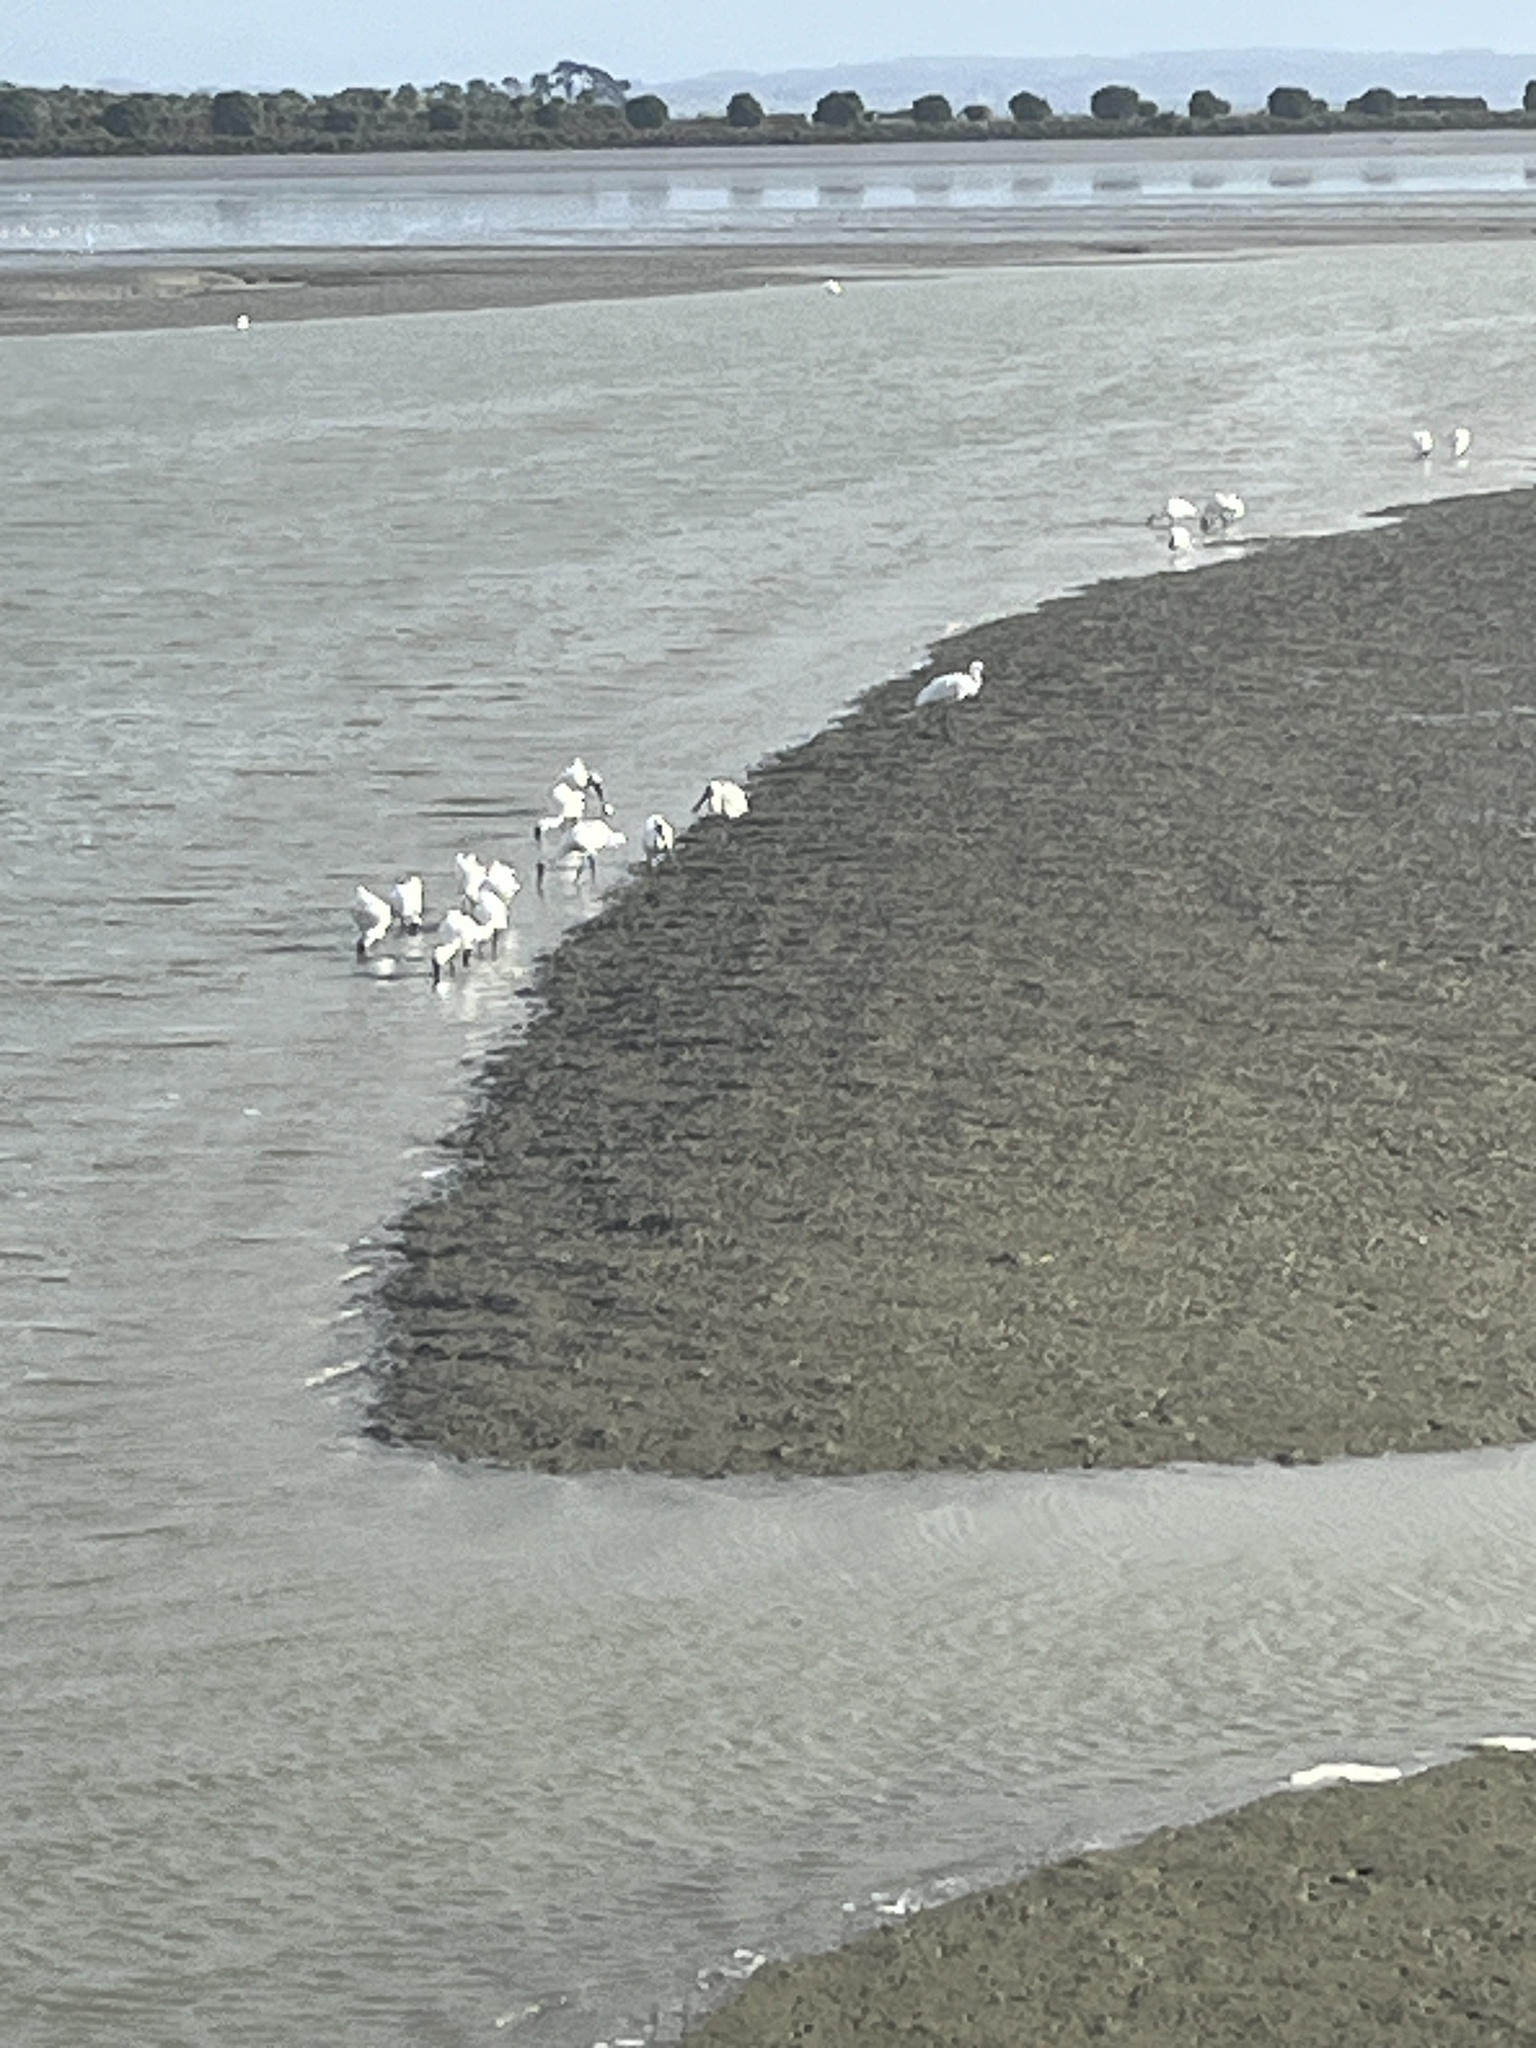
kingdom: Animalia
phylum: Chordata
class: Aves
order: Pelecaniformes
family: Threskiornithidae
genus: Platalea
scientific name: Platalea regia
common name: Royal spoonbill
